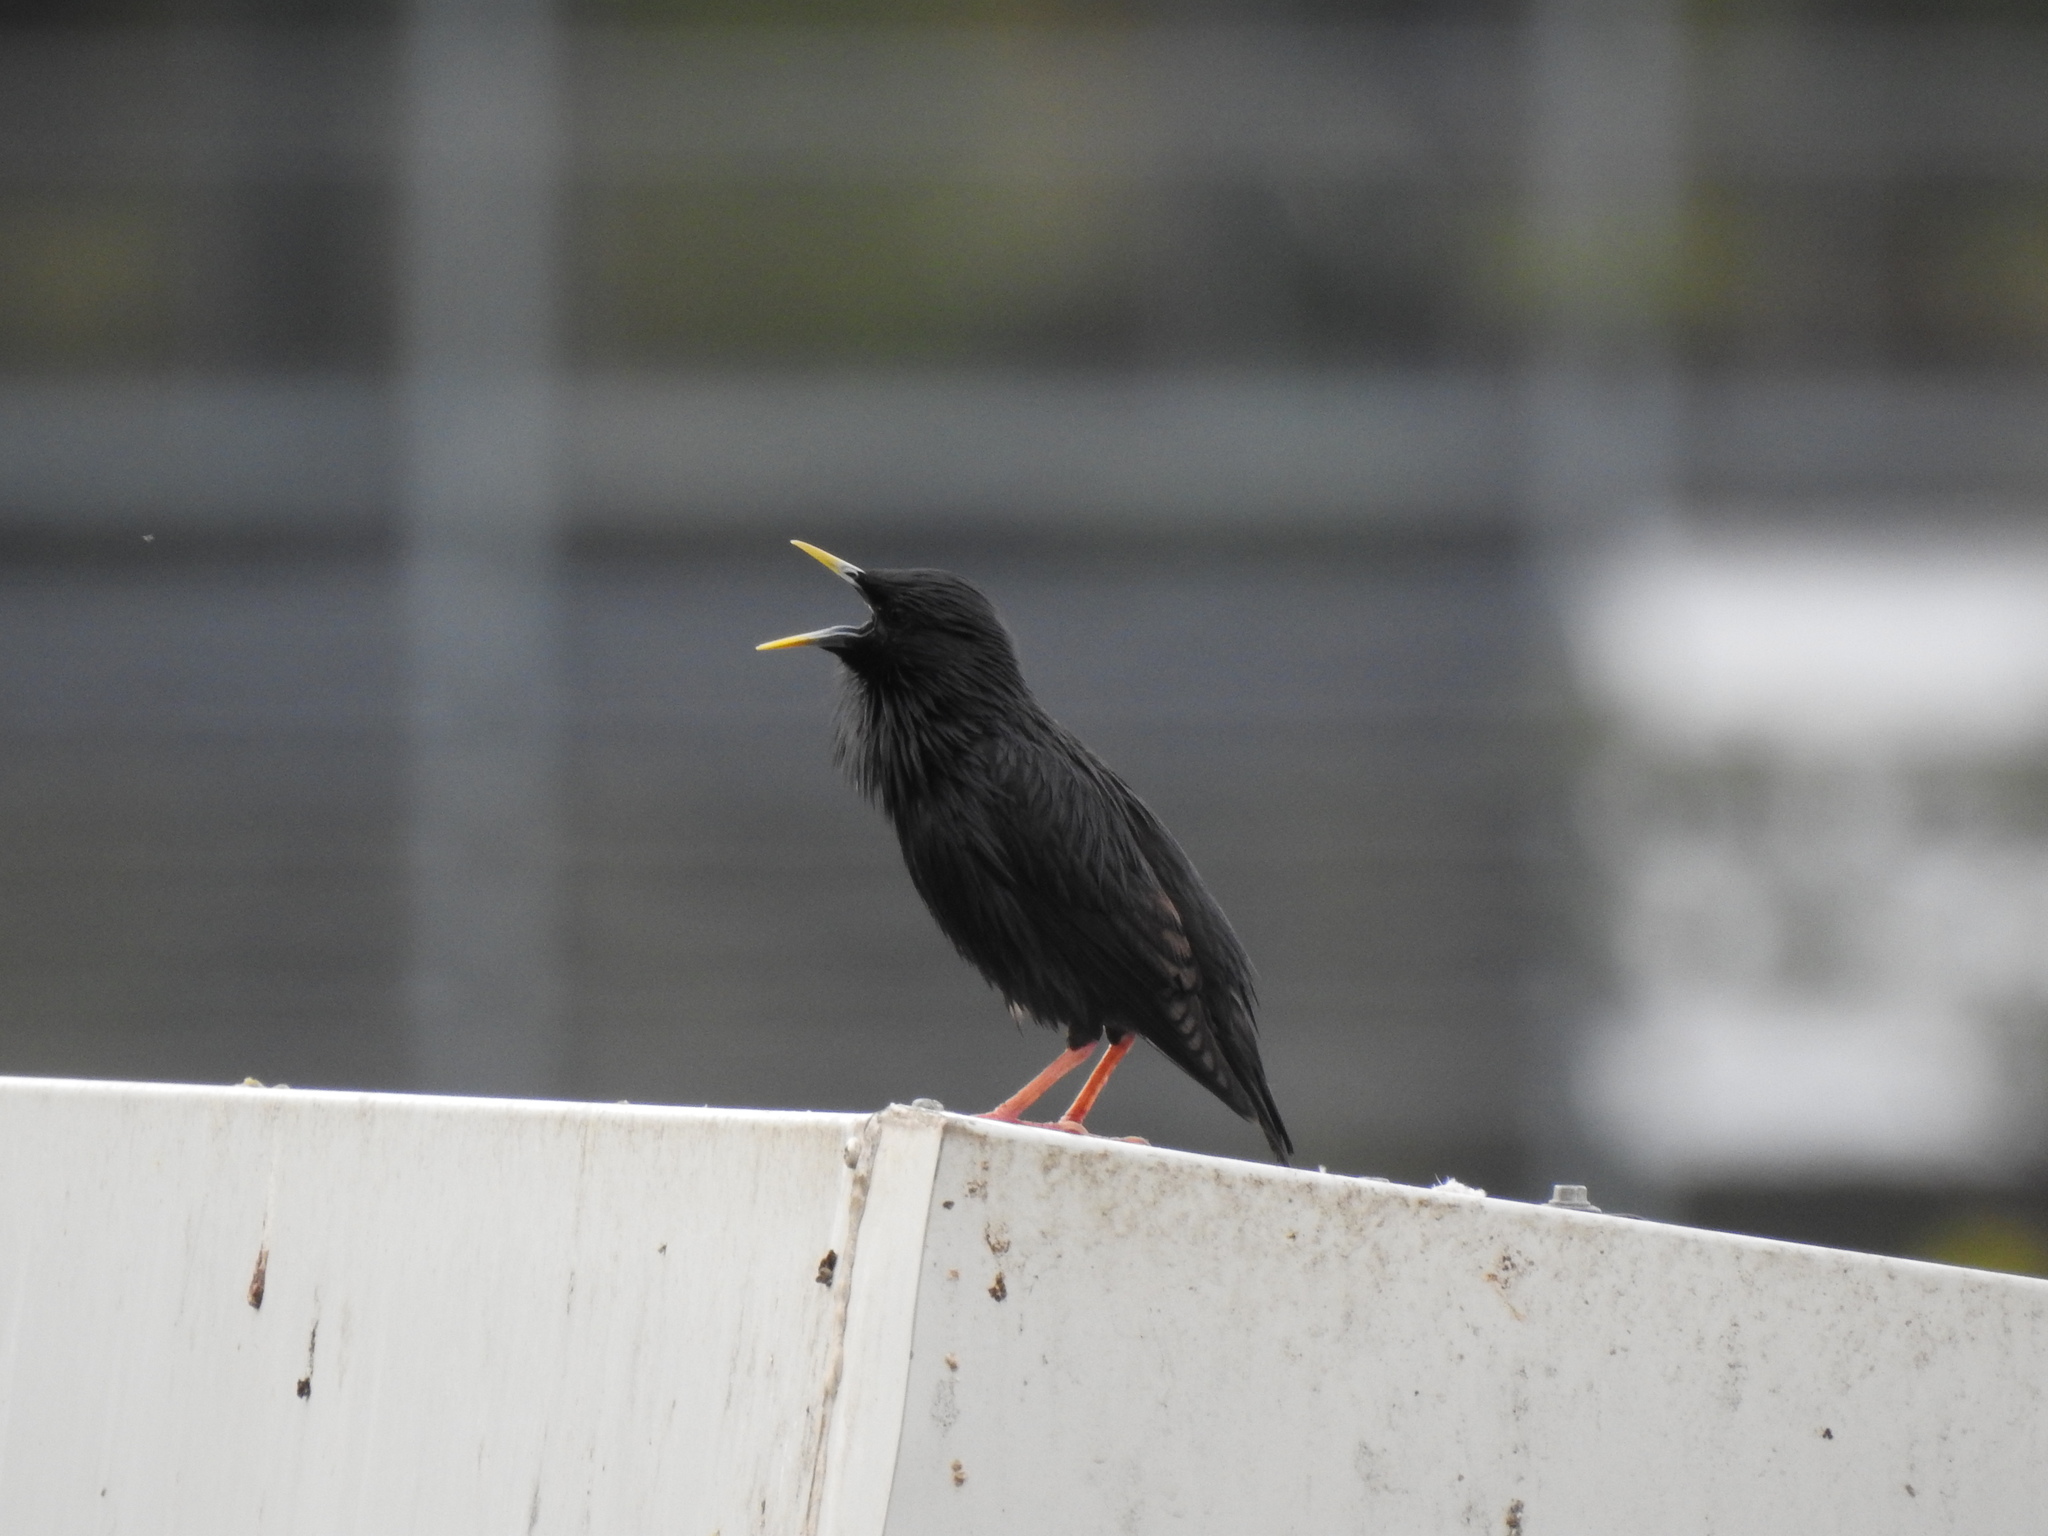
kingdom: Animalia
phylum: Chordata
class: Aves
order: Passeriformes
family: Sturnidae
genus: Sturnus
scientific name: Sturnus unicolor
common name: Spotless starling
